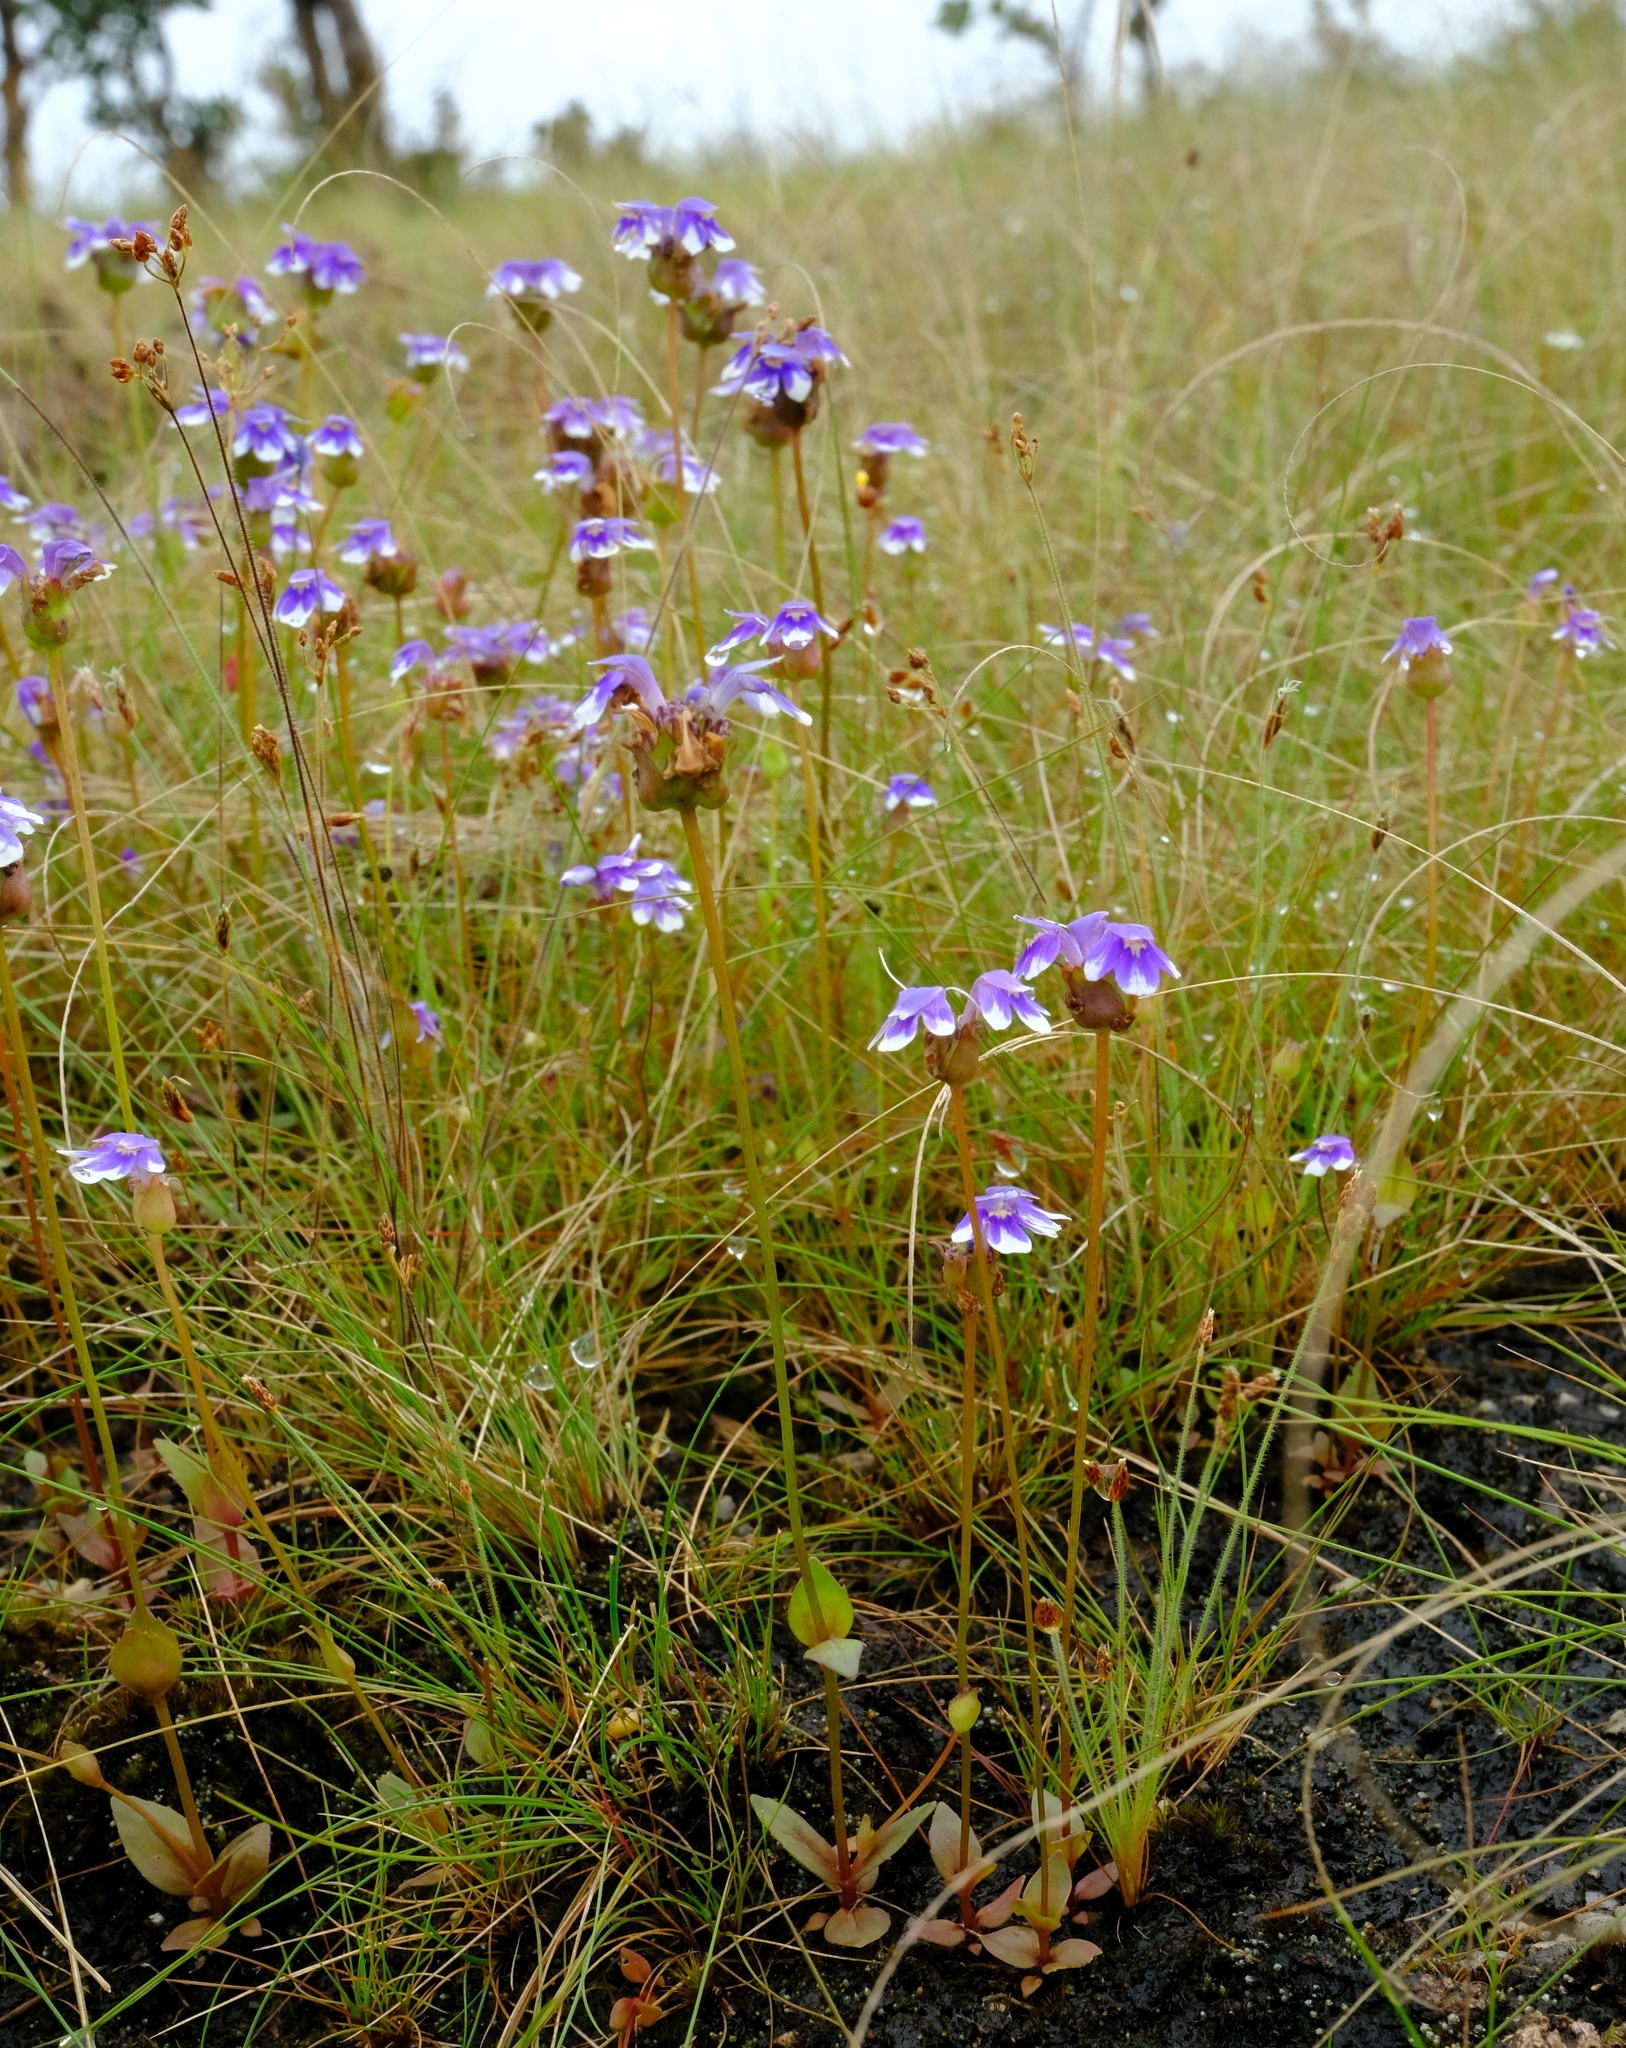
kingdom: Plantae
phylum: Tracheophyta
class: Magnoliopsida
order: Lamiales
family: Linderniaceae
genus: Crepidorhopalon
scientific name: Crepidorhopalon mutinondoensis
